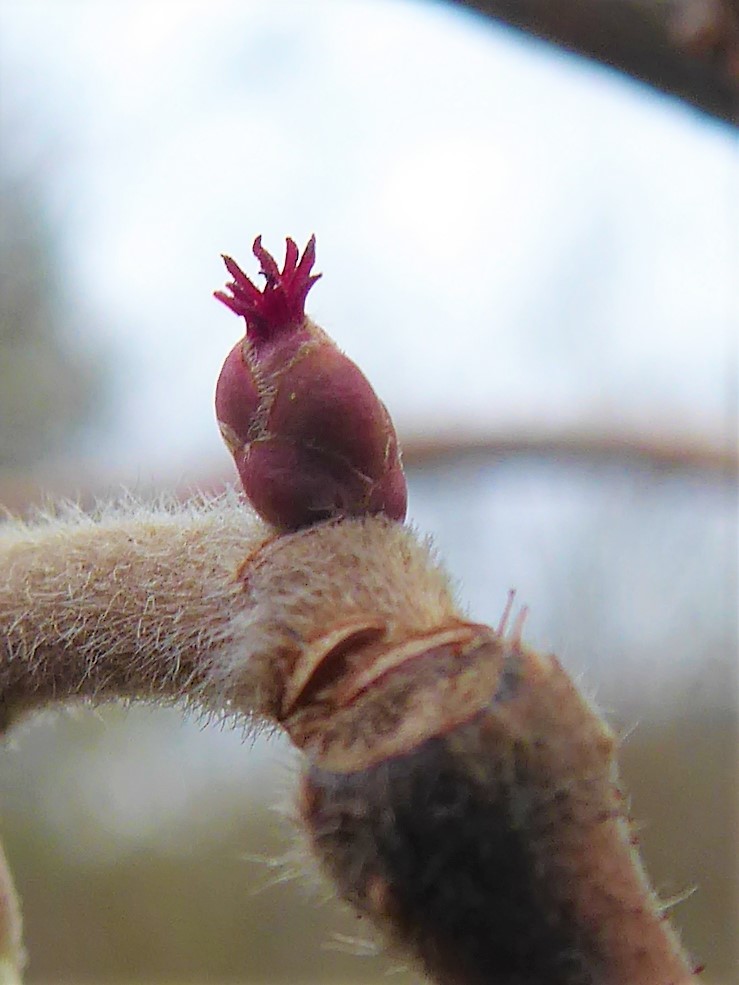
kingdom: Plantae
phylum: Tracheophyta
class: Magnoliopsida
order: Fagales
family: Betulaceae
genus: Corylus
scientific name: Corylus avellana
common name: European hazel
